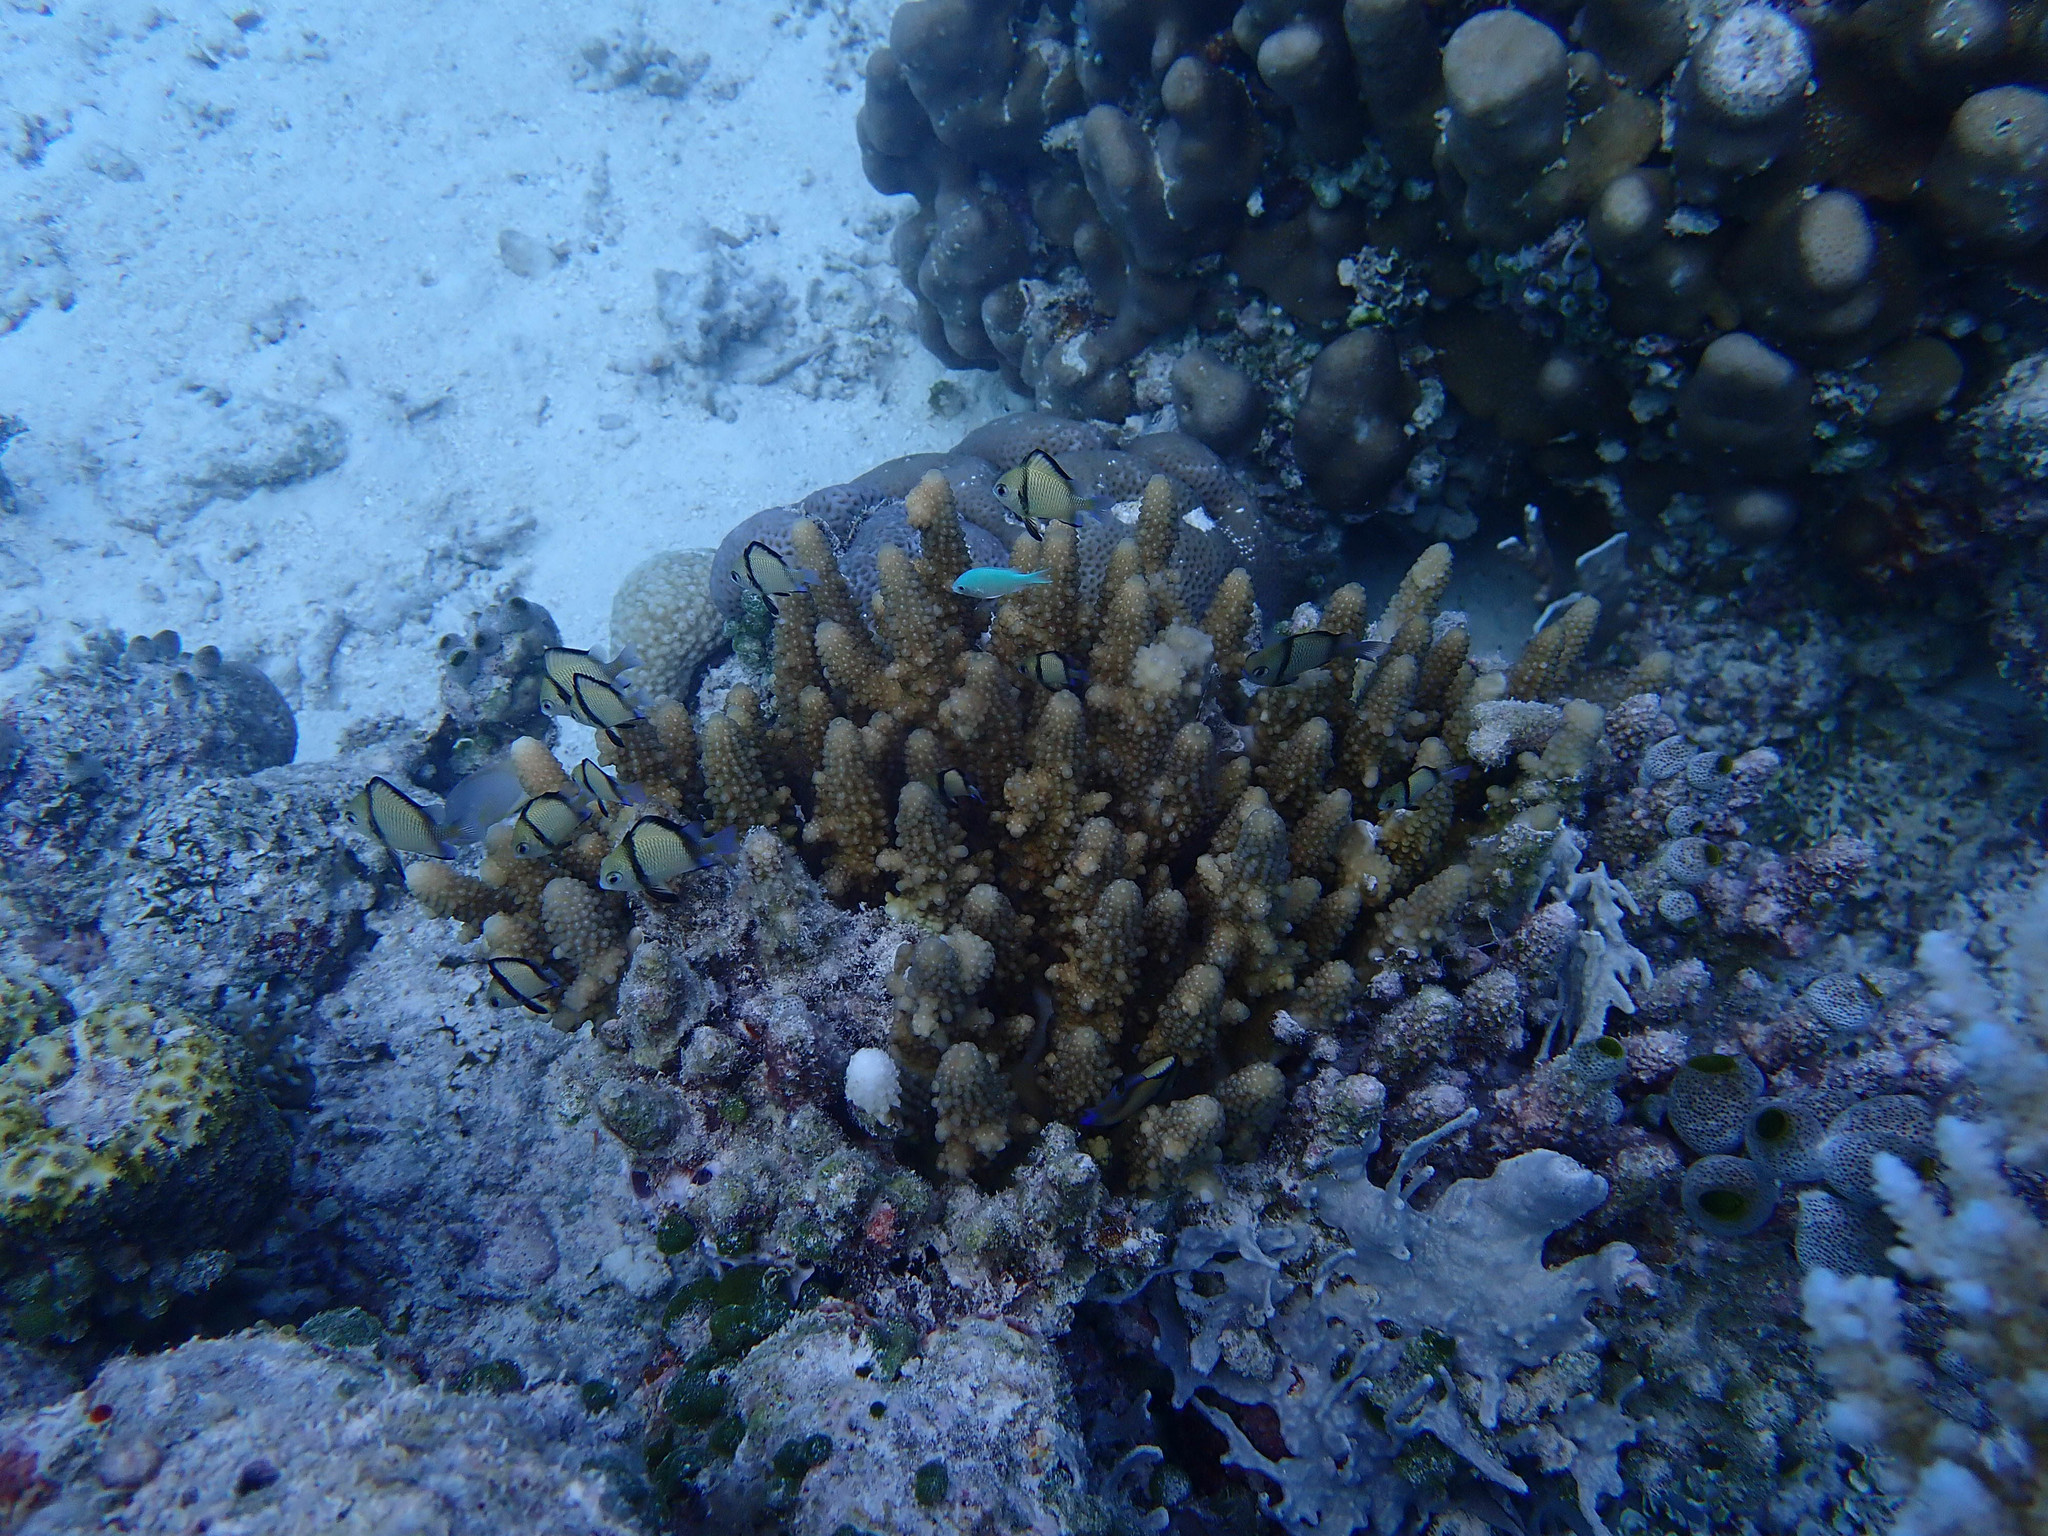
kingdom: Animalia
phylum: Chordata
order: Perciformes
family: Pomacentridae
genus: Chromis
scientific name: Chromis viridis
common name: Blue-green chromis
